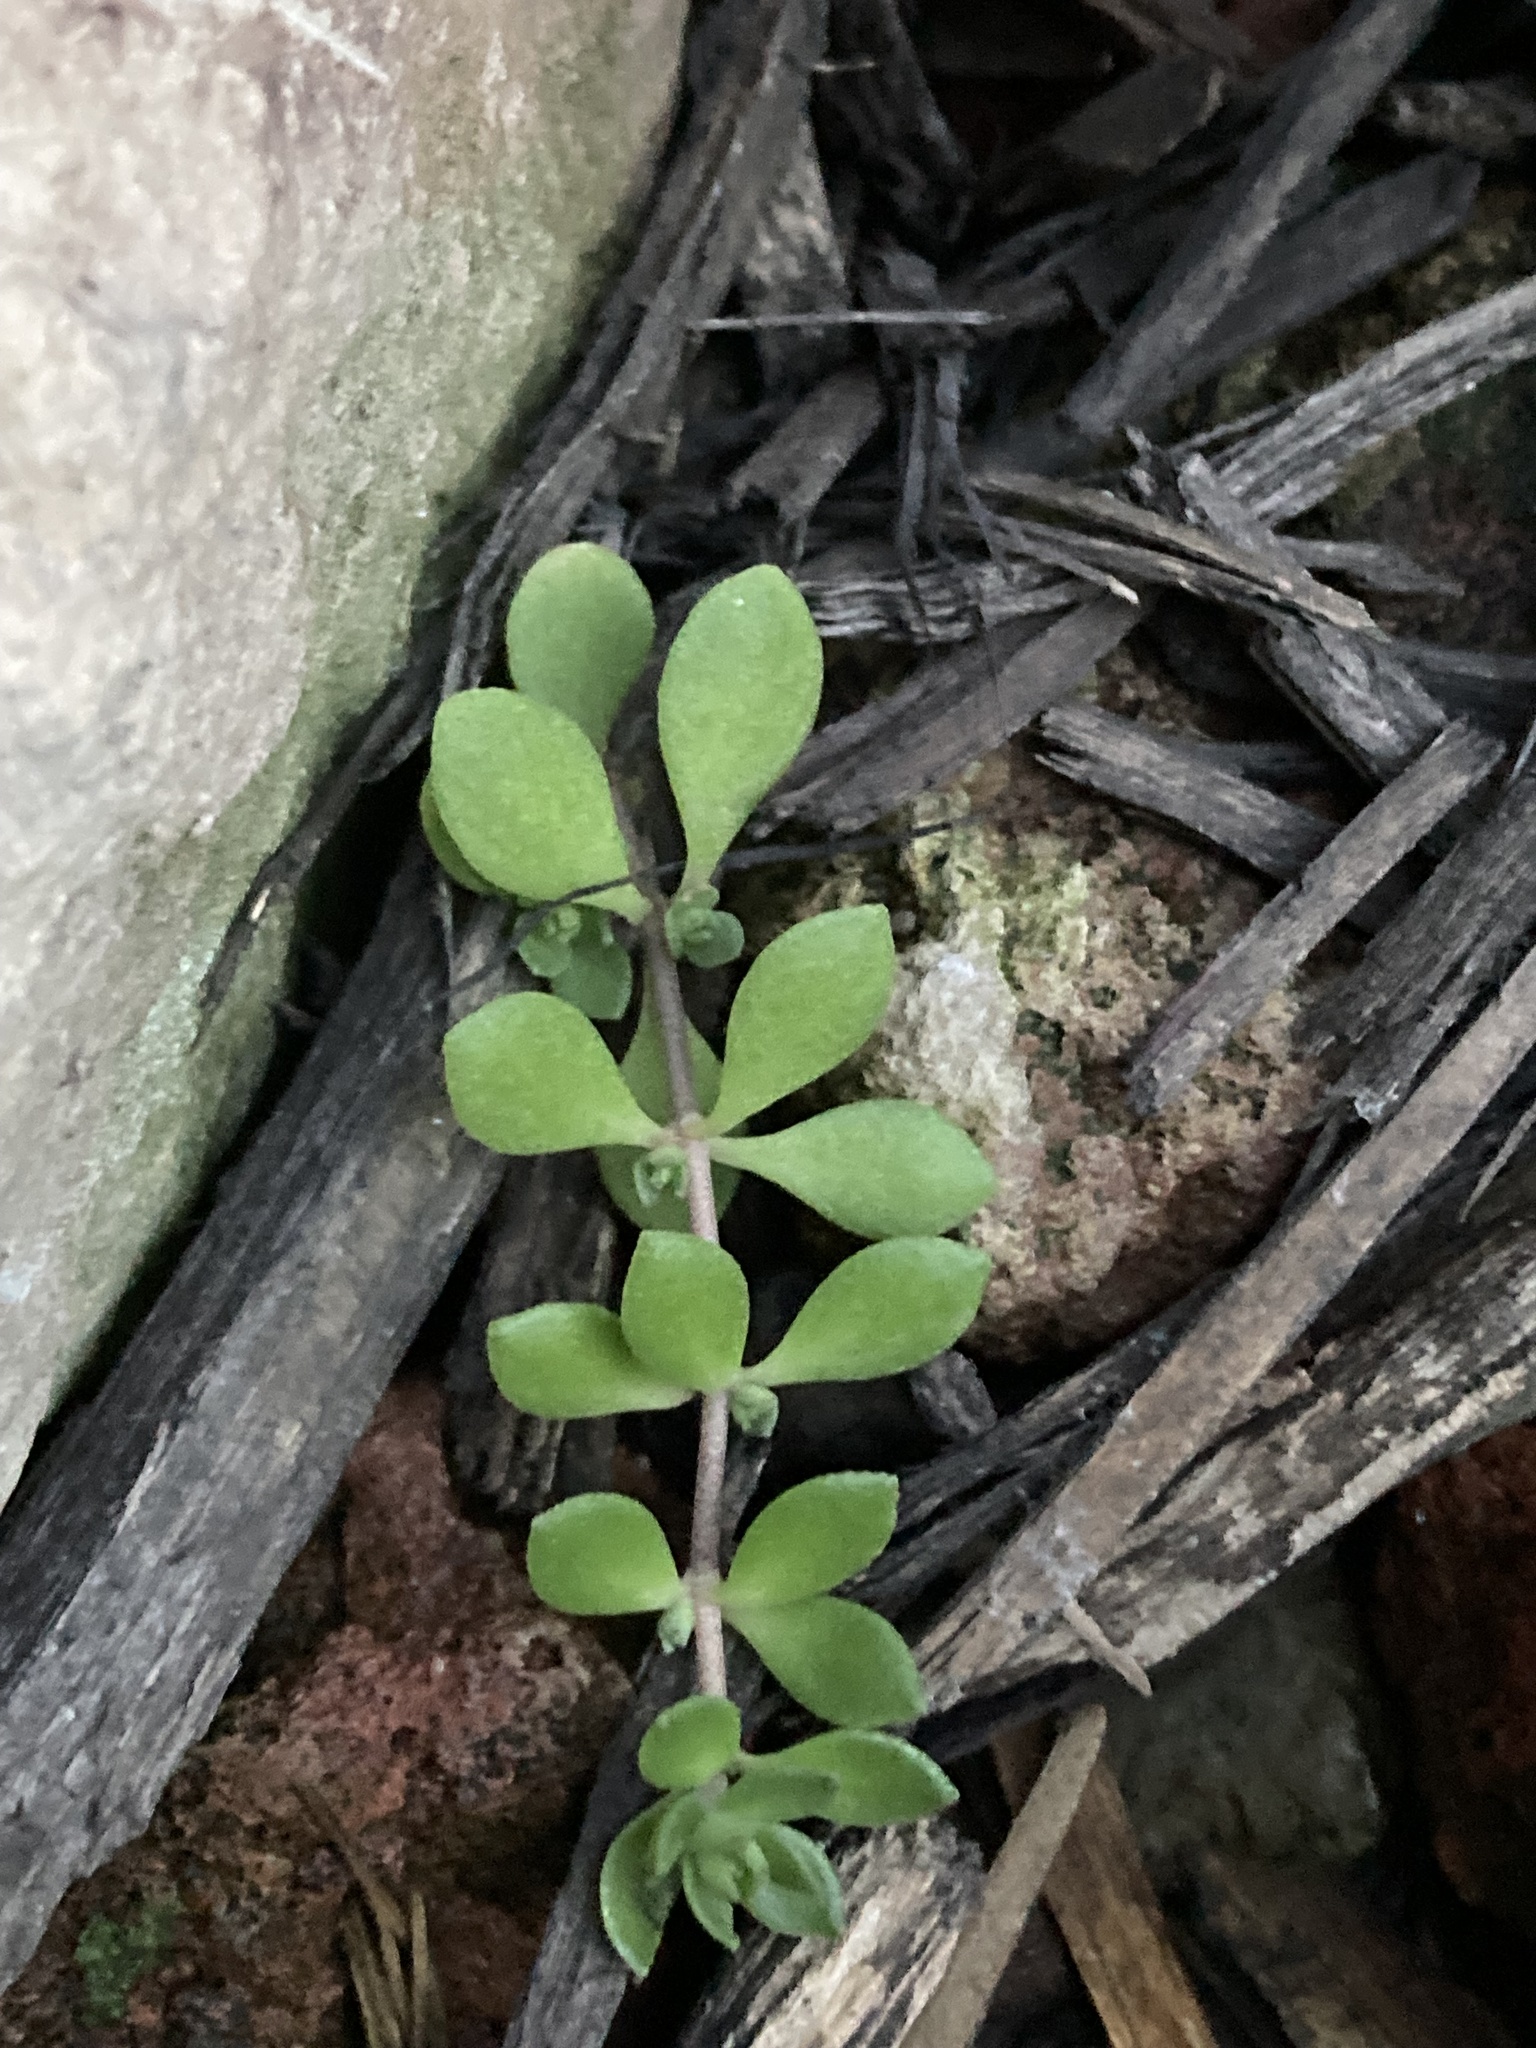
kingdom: Plantae
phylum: Tracheophyta
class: Magnoliopsida
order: Saxifragales
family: Crassulaceae
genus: Sedum
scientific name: Sedum sarmentosum
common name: Stringy stonecrop
